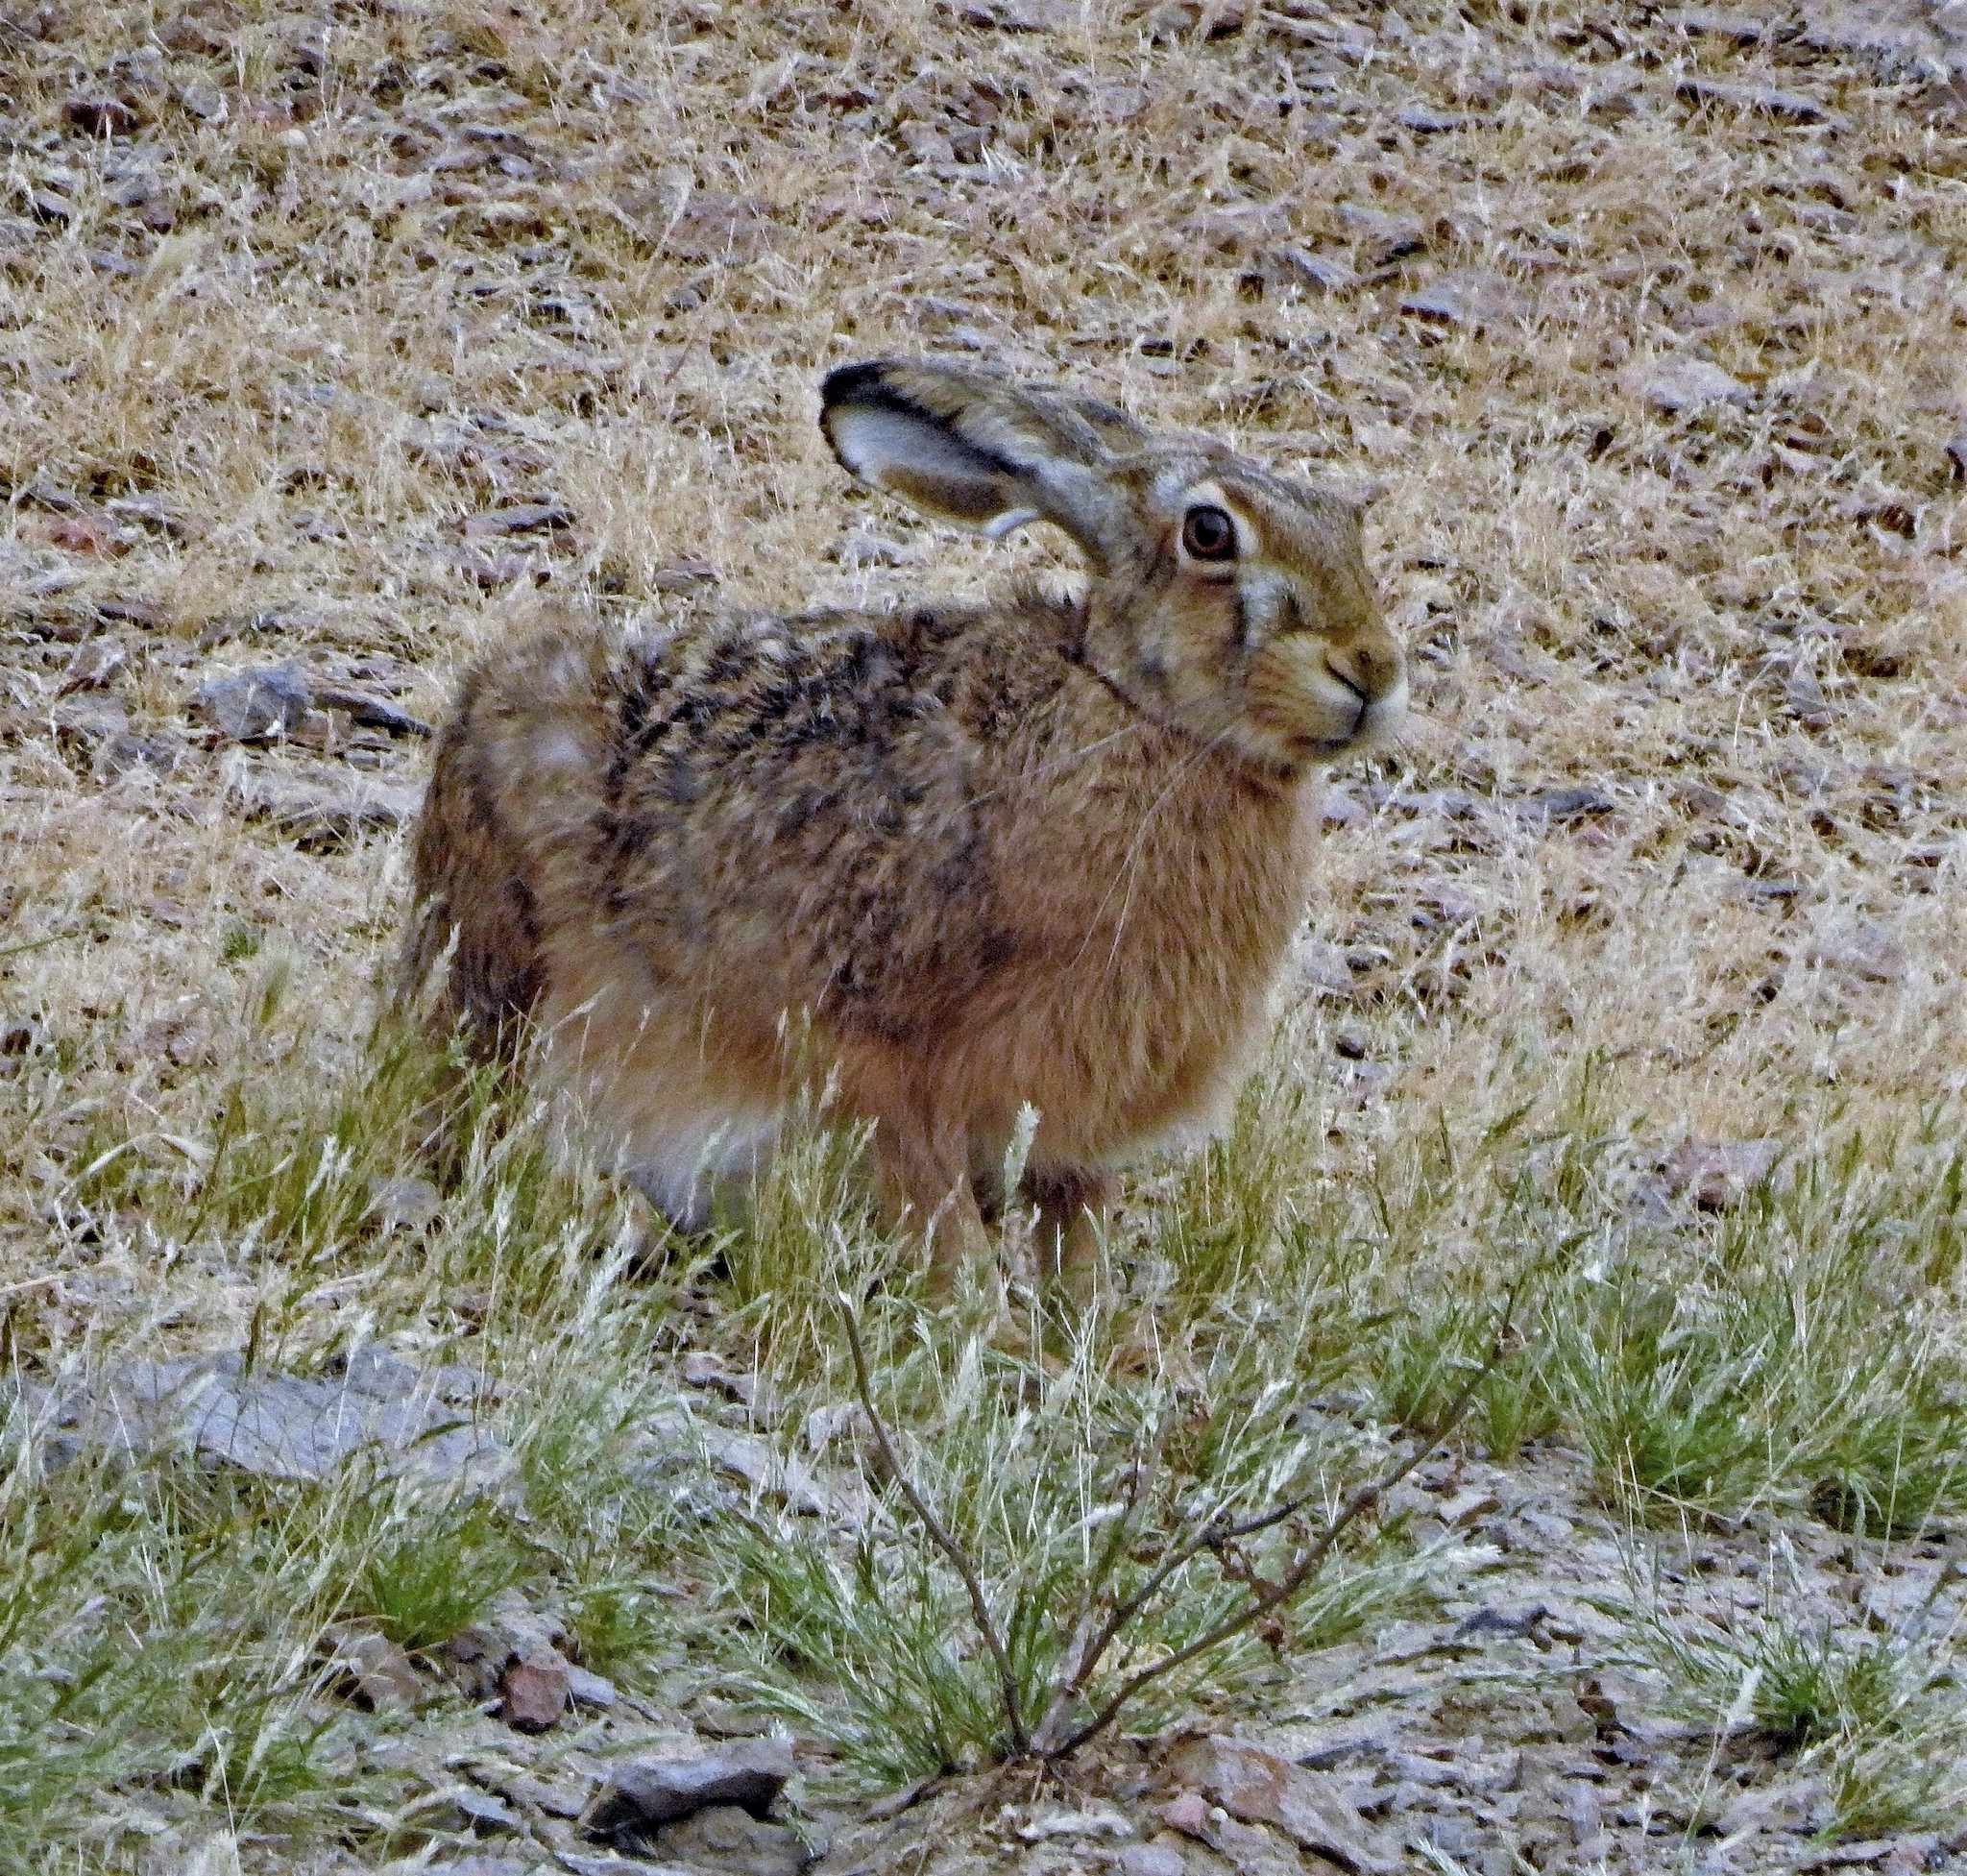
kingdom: Animalia
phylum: Chordata
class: Mammalia
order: Lagomorpha
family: Leporidae
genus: Lepus
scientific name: Lepus europaeus
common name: European hare
